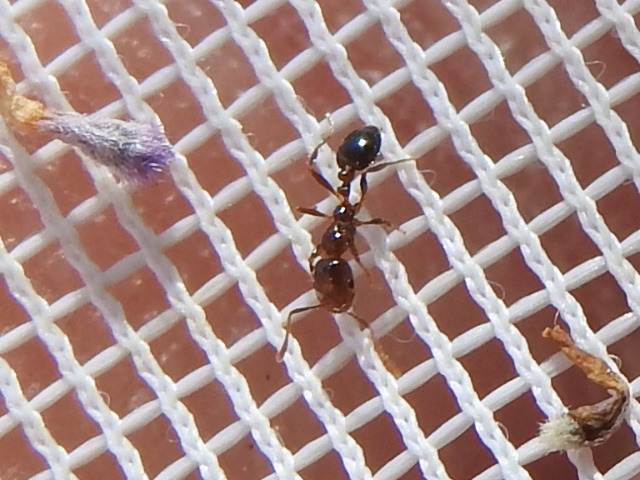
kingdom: Animalia
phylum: Arthropoda
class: Insecta
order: Hymenoptera
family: Formicidae
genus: Solenopsis
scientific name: Solenopsis invicta
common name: Red imported fire ant
